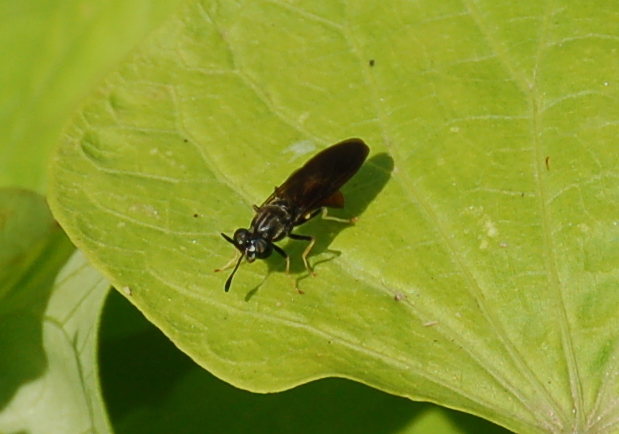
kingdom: Animalia
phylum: Arthropoda
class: Insecta
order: Diptera
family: Stratiomyidae
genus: Hermetia
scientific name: Hermetia relicta
